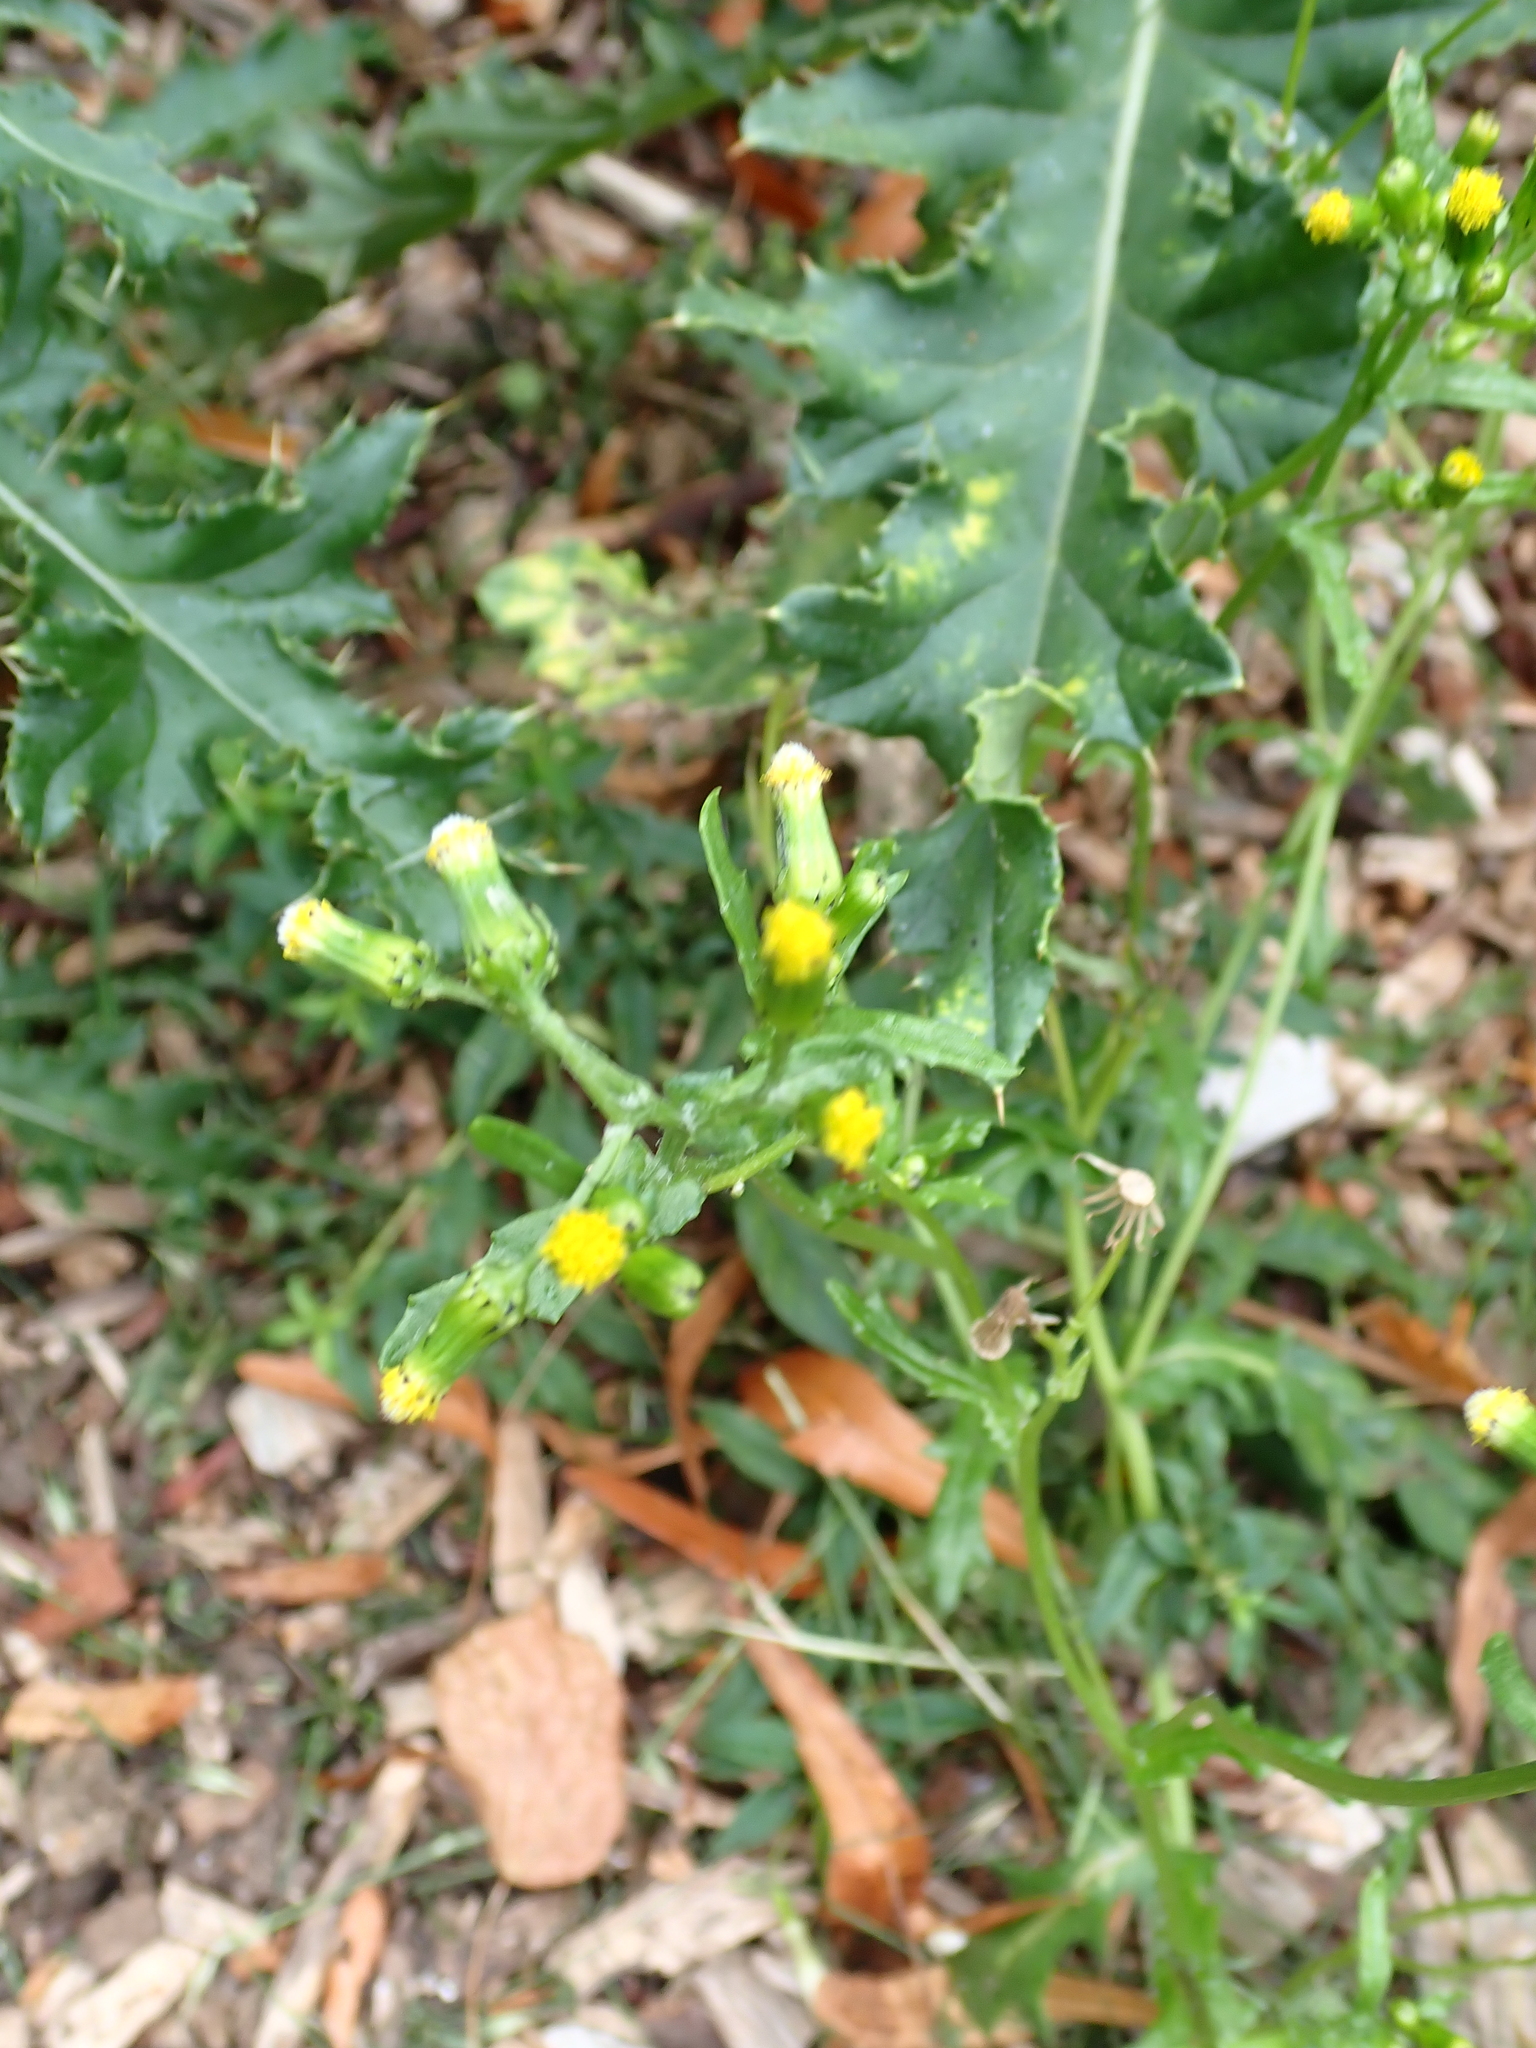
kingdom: Plantae
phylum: Tracheophyta
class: Magnoliopsida
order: Asterales
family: Asteraceae
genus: Senecio
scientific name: Senecio vulgaris
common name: Old-man-in-the-spring
